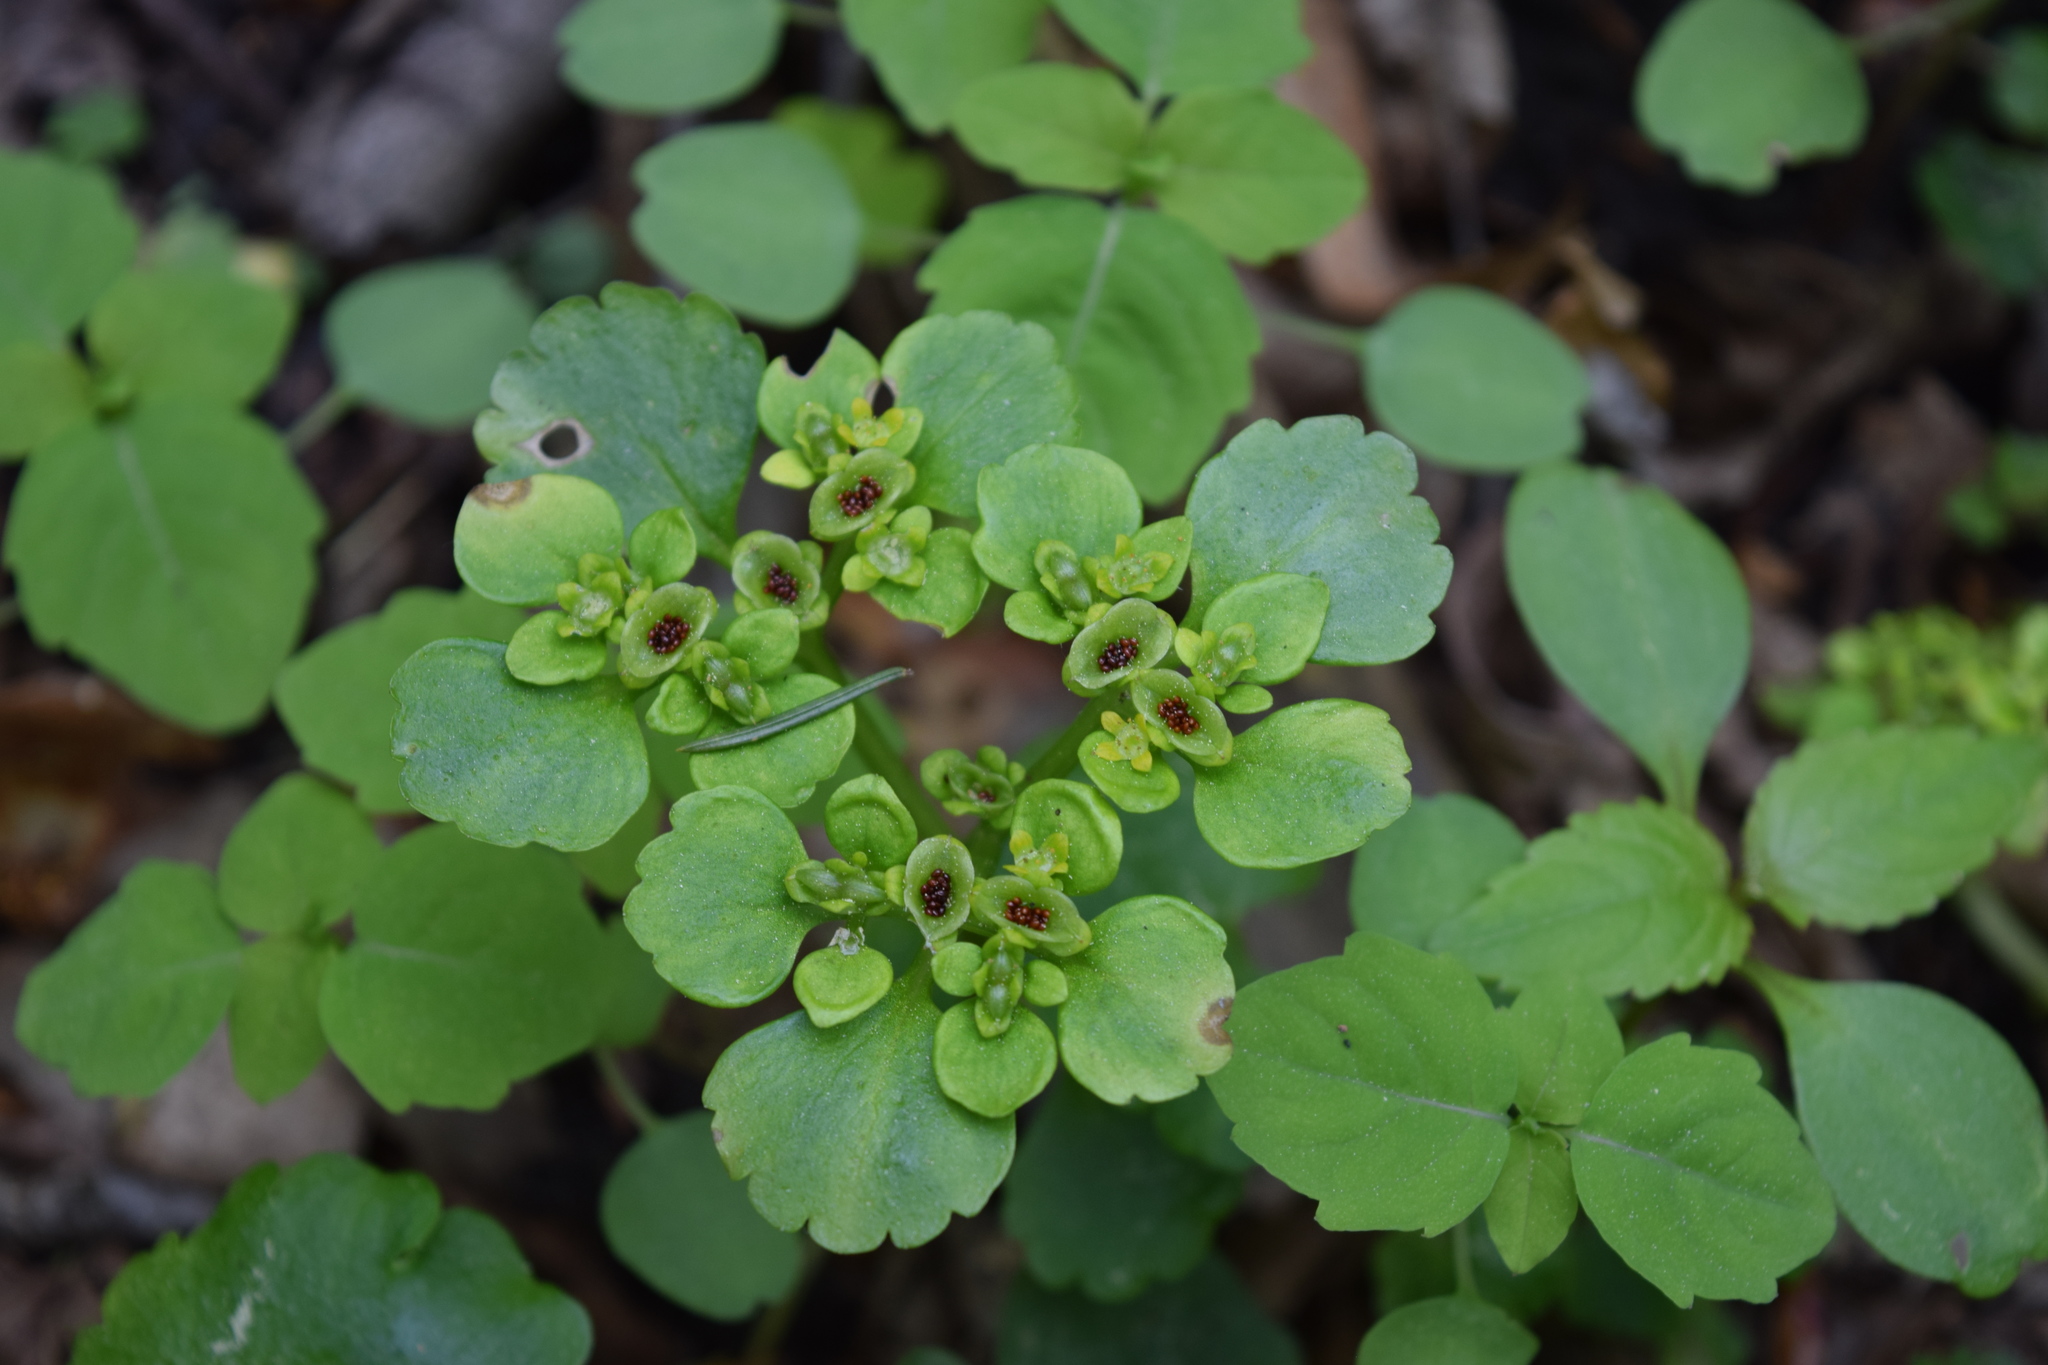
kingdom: Plantae
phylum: Tracheophyta
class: Magnoliopsida
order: Saxifragales
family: Saxifragaceae
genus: Chrysosplenium
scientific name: Chrysosplenium alternifolium
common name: Alternate-leaved golden-saxifrage
